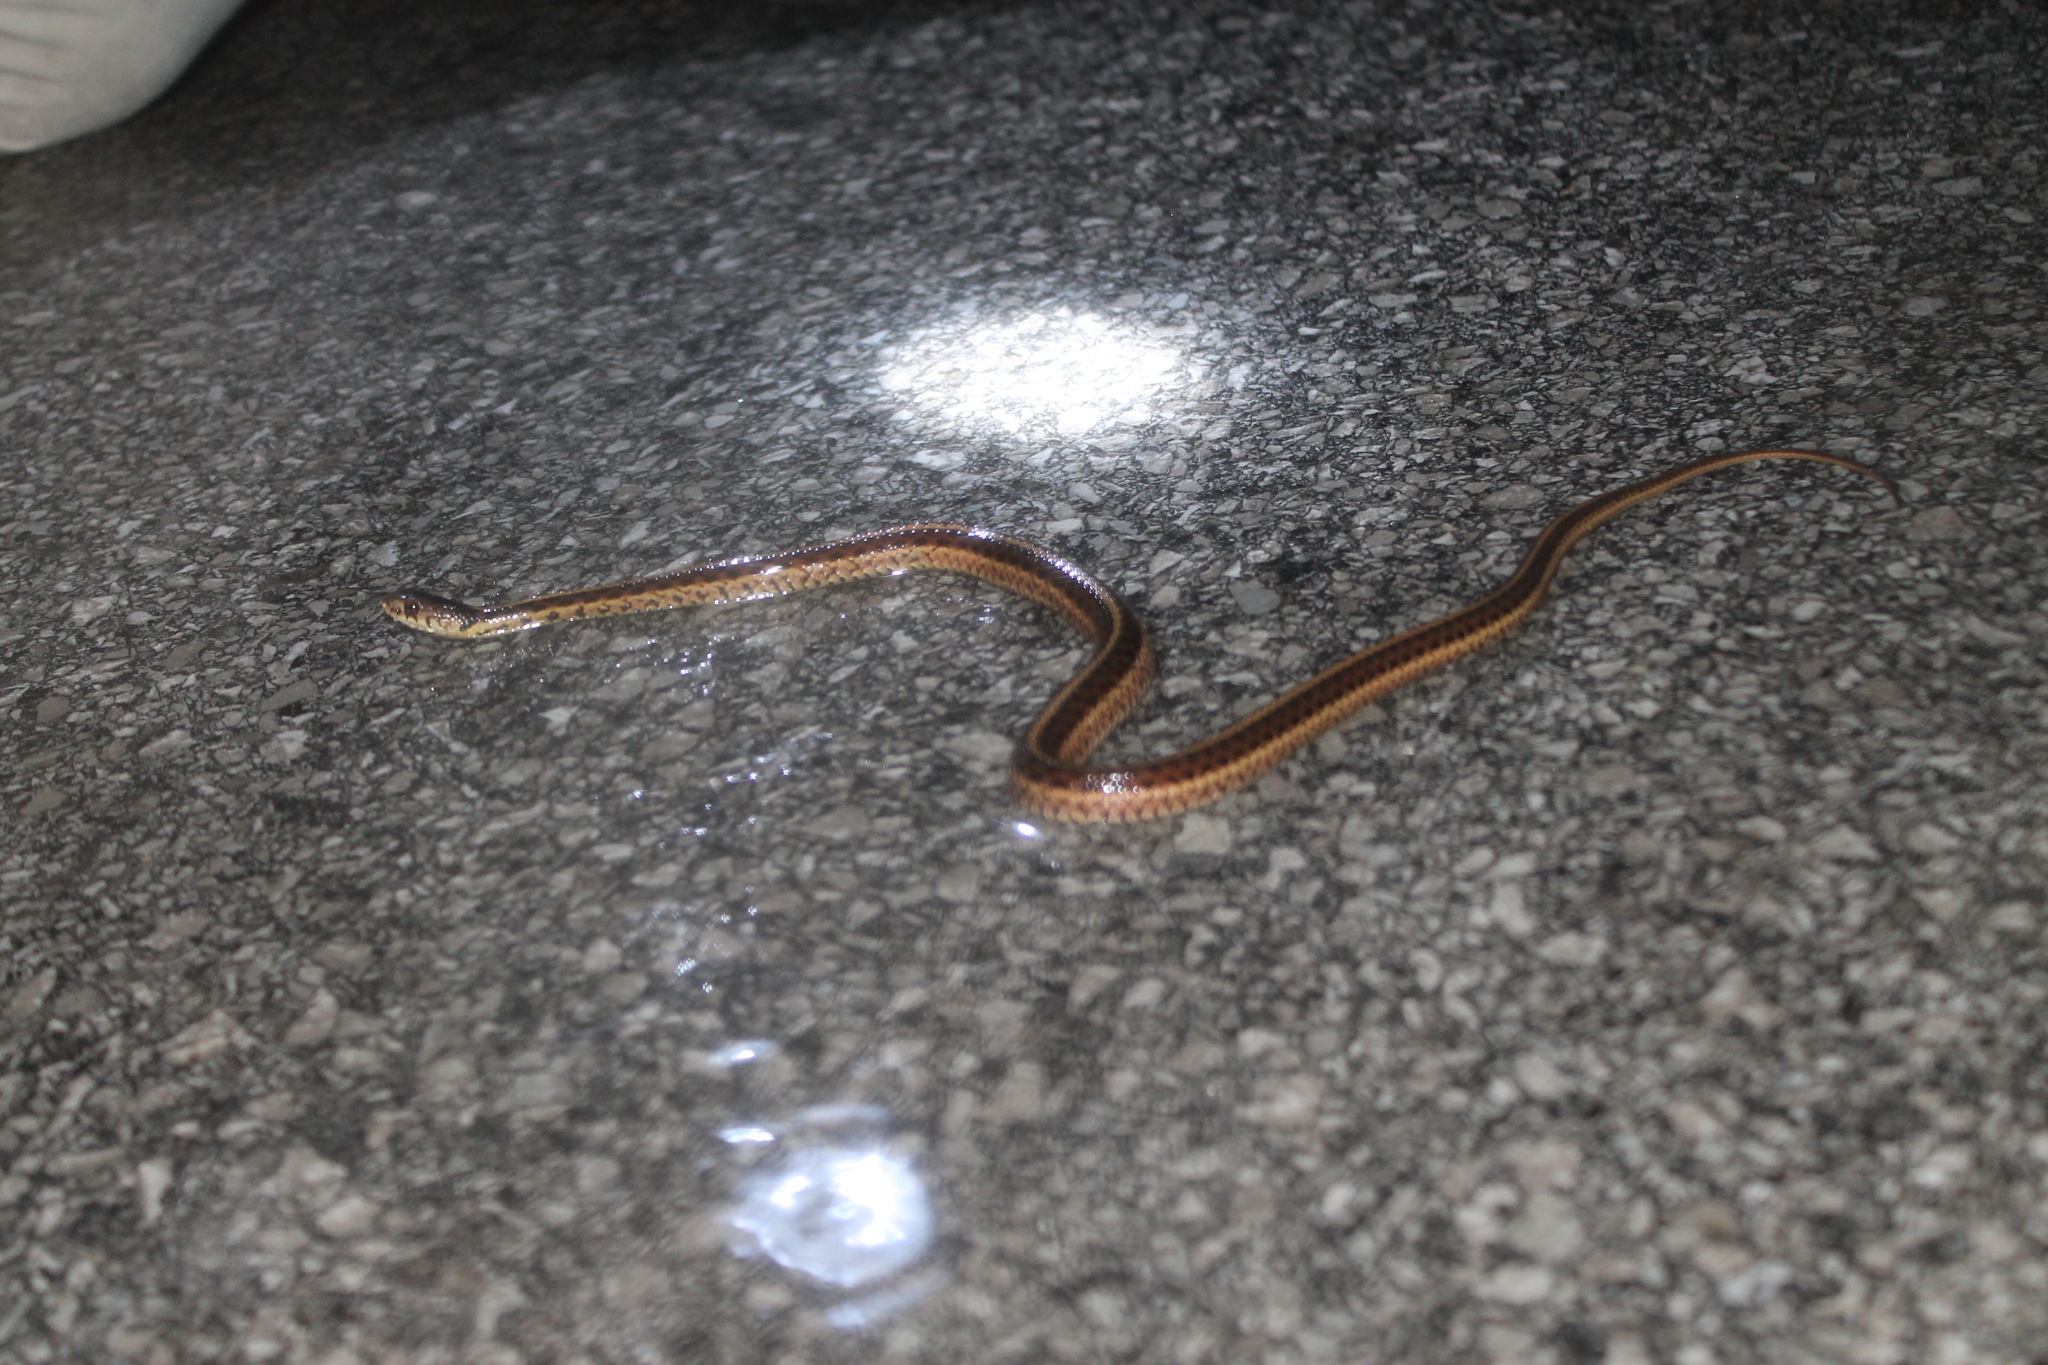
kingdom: Animalia
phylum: Chordata
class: Squamata
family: Colubridae
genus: Thamnophis
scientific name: Thamnophis sirtalis
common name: Common garter snake
